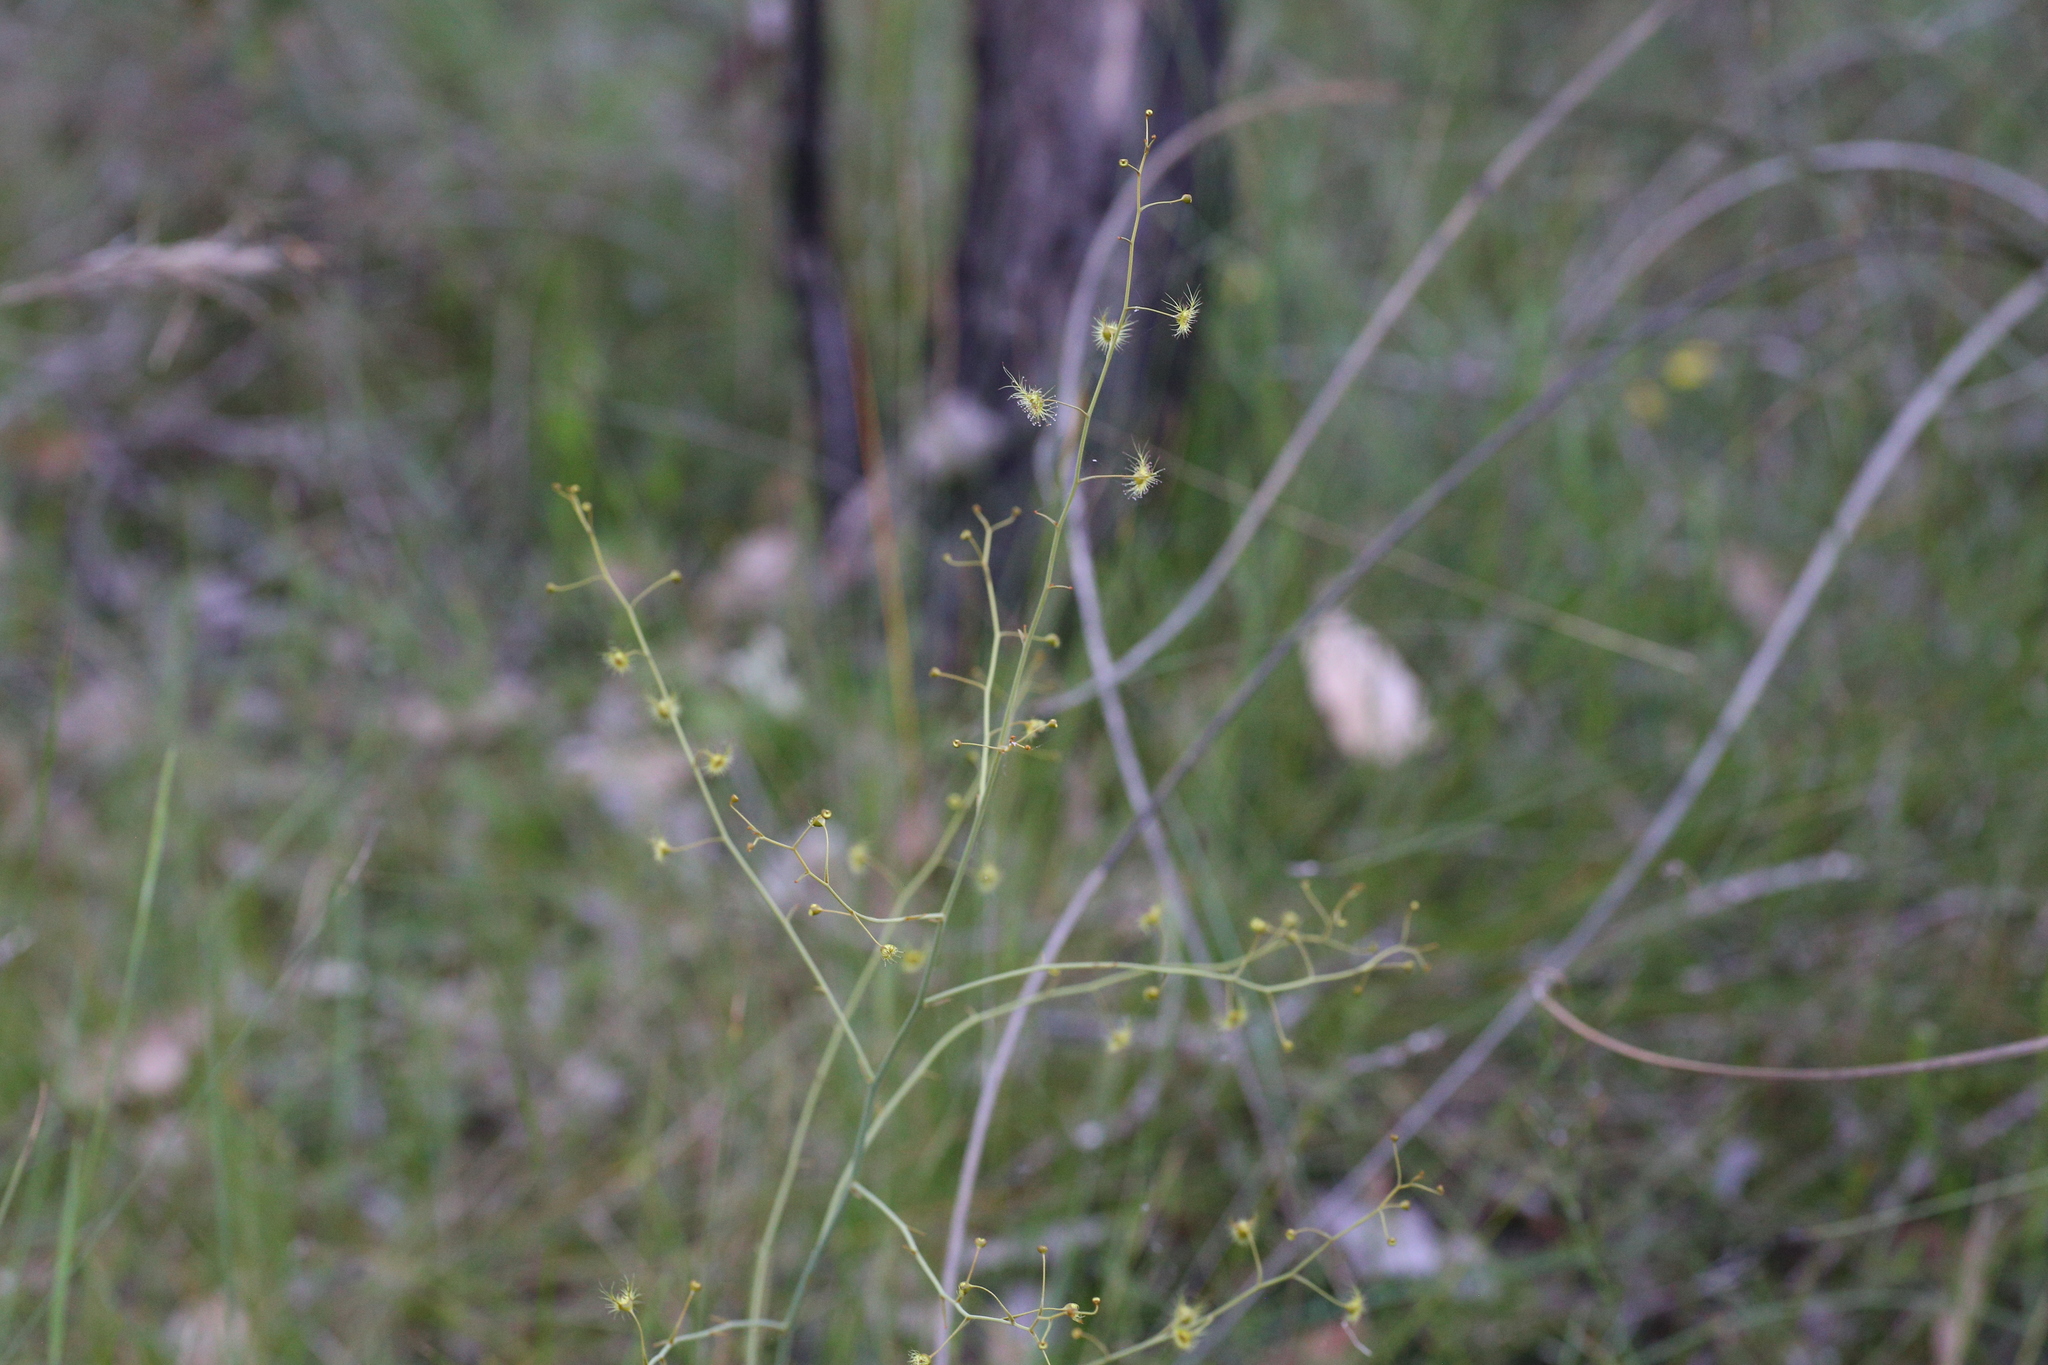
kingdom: Plantae
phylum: Tracheophyta
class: Magnoliopsida
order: Caryophyllales
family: Droseraceae
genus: Drosera
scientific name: Drosera gigantea
